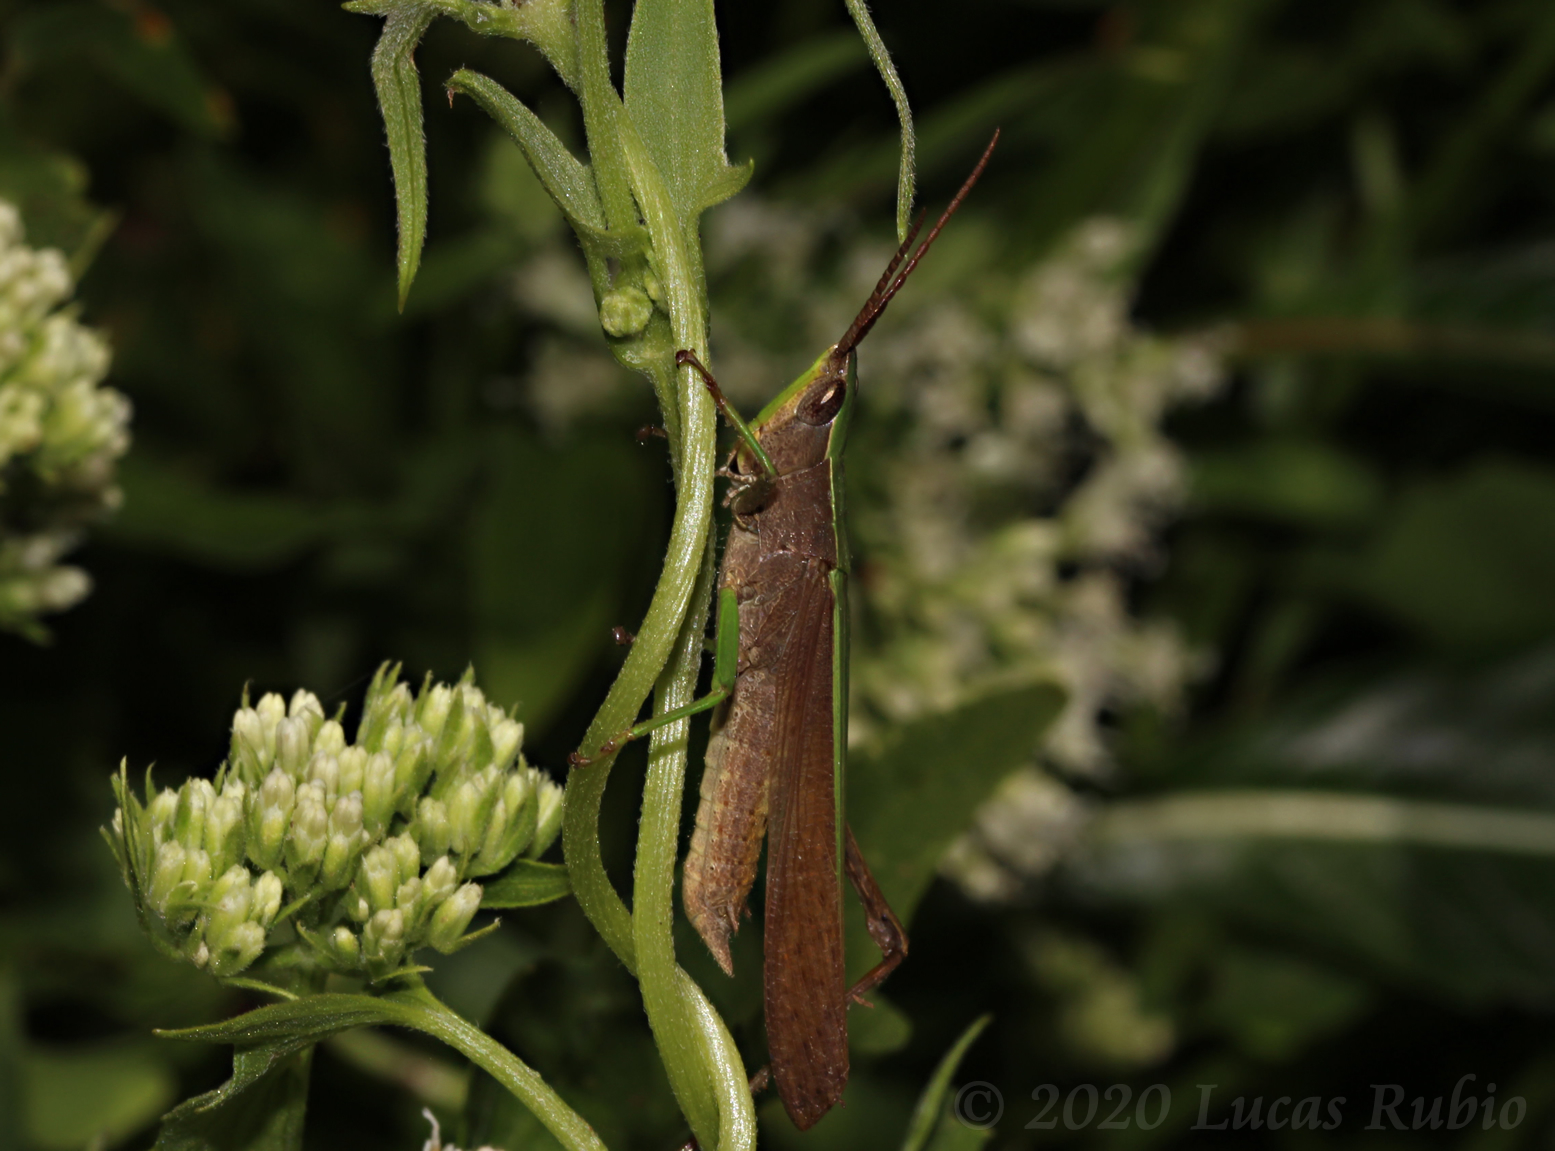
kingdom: Animalia
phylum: Arthropoda
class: Insecta
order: Orthoptera
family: Acrididae
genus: Metaleptea
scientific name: Metaleptea adspersa
